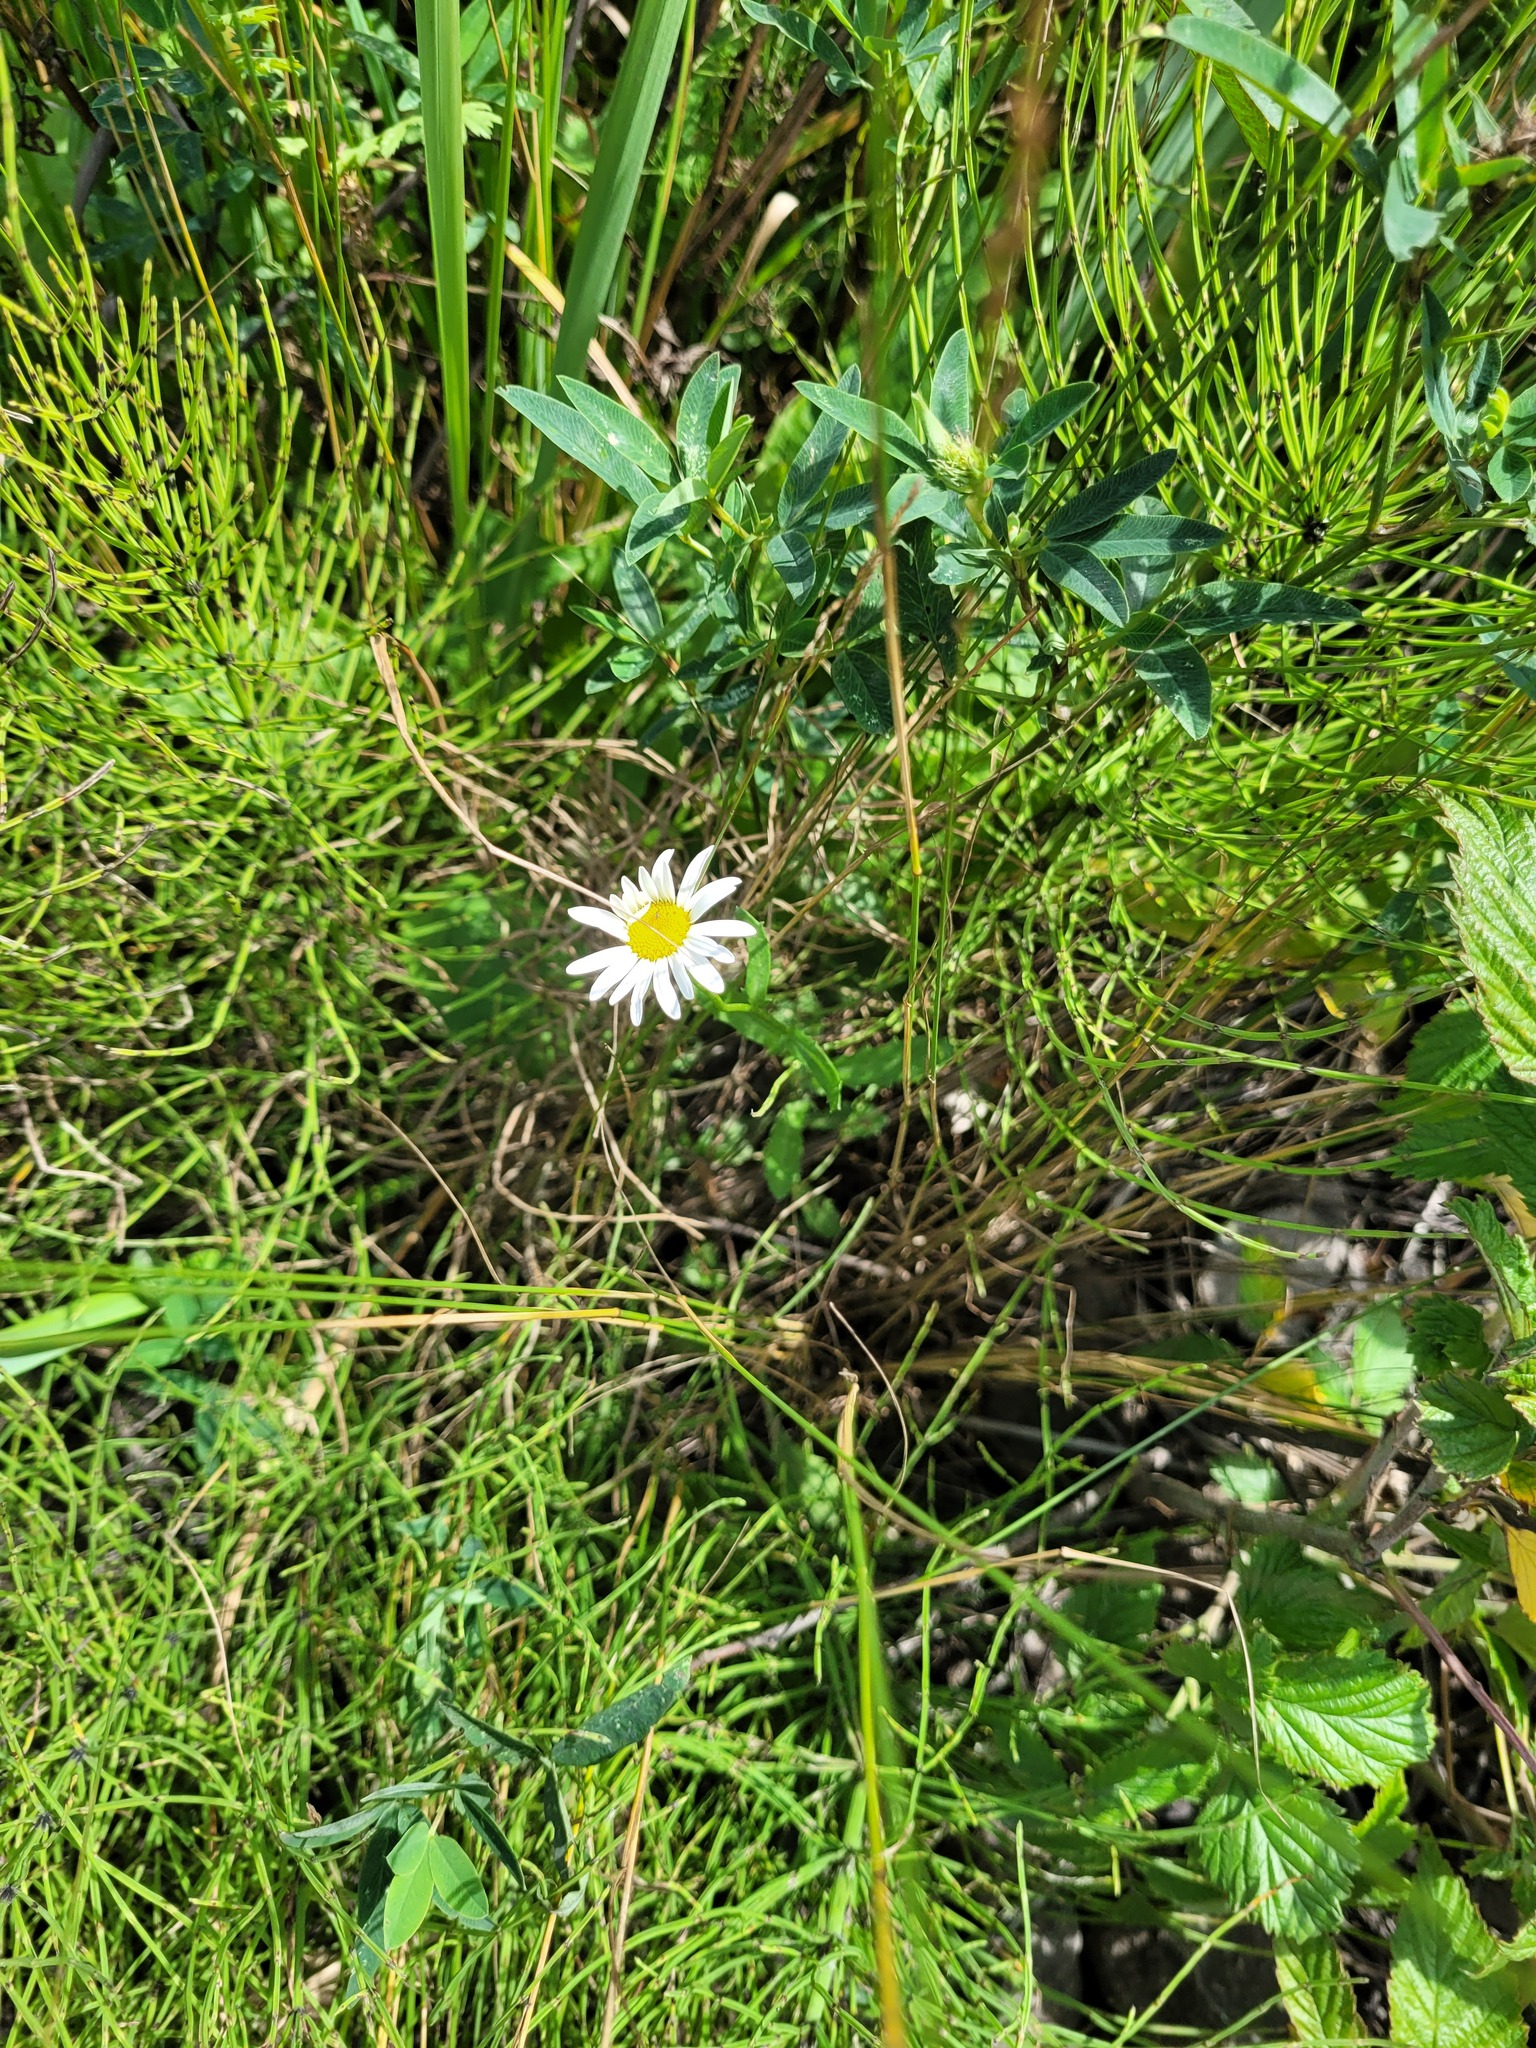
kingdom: Plantae
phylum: Tracheophyta
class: Magnoliopsida
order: Asterales
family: Asteraceae
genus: Leucanthemum
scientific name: Leucanthemum vulgare
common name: Oxeye daisy
